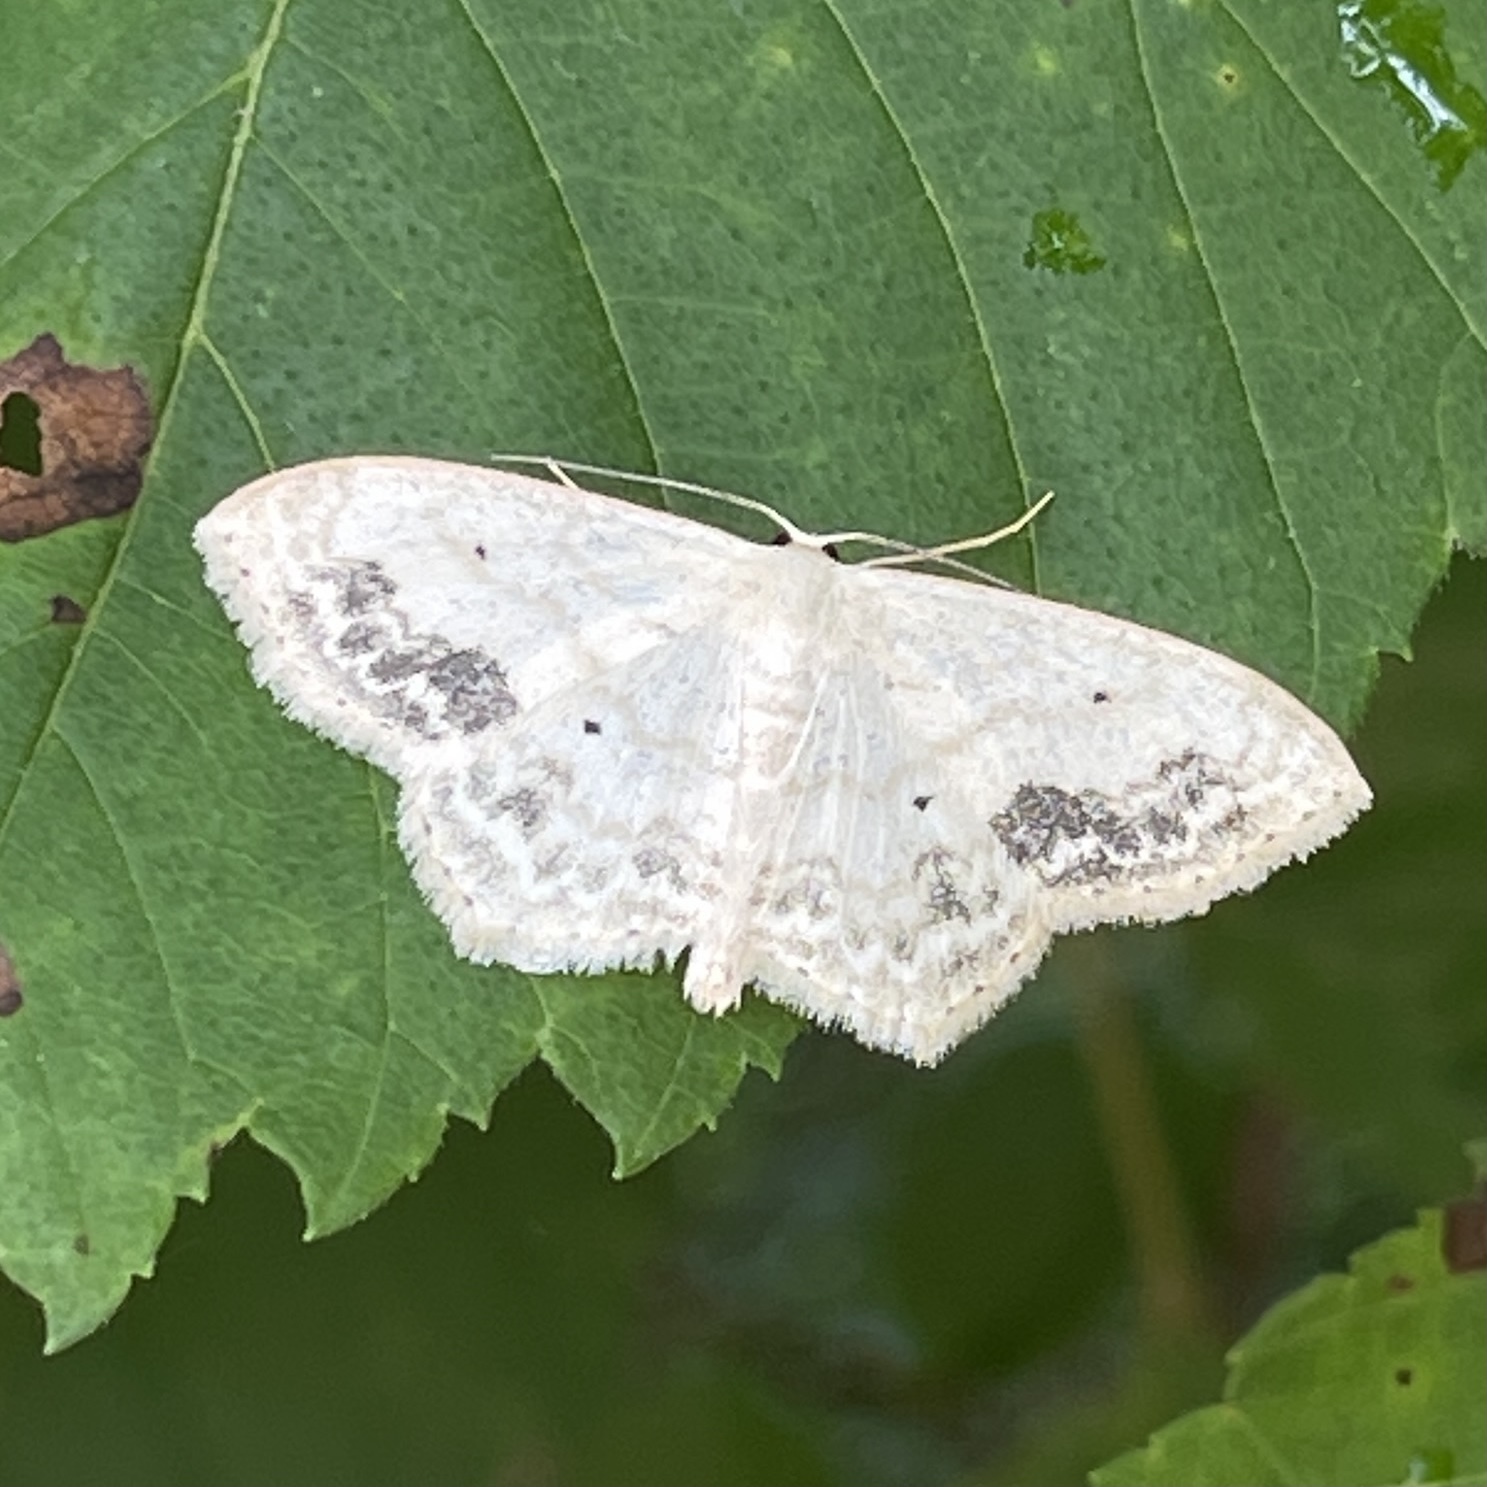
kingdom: Animalia
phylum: Arthropoda
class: Insecta
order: Lepidoptera
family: Geometridae
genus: Scopula
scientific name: Scopula limboundata
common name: Large lace border
